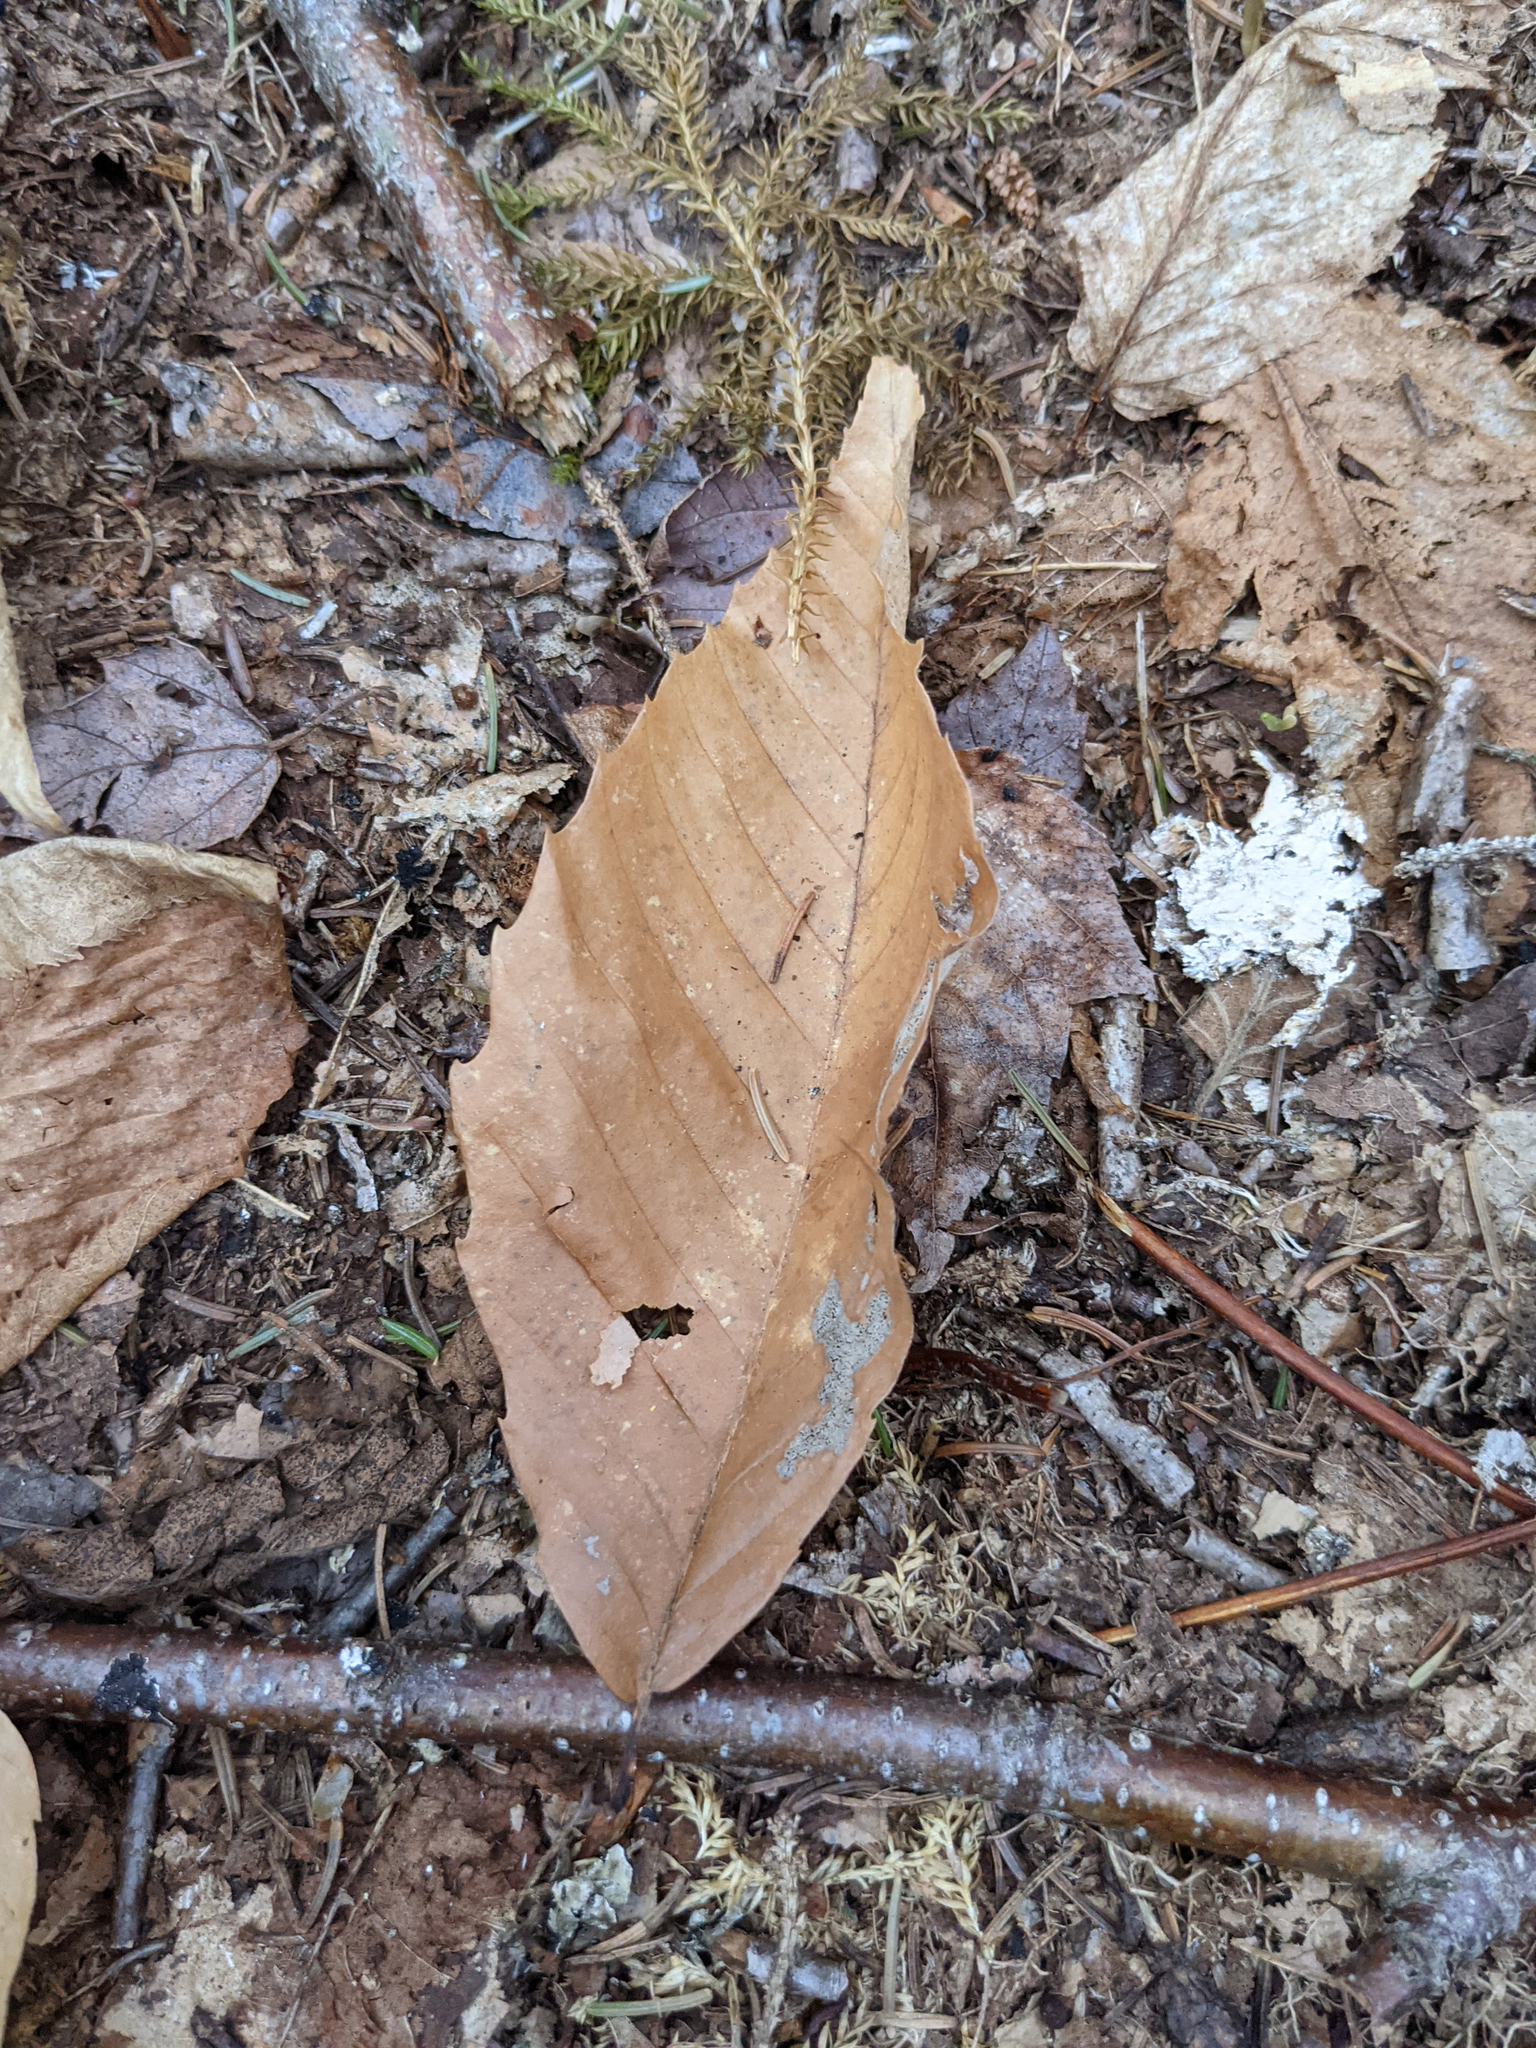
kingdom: Plantae
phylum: Tracheophyta
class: Magnoliopsida
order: Fagales
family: Fagaceae
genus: Fagus
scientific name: Fagus grandifolia
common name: American beech
